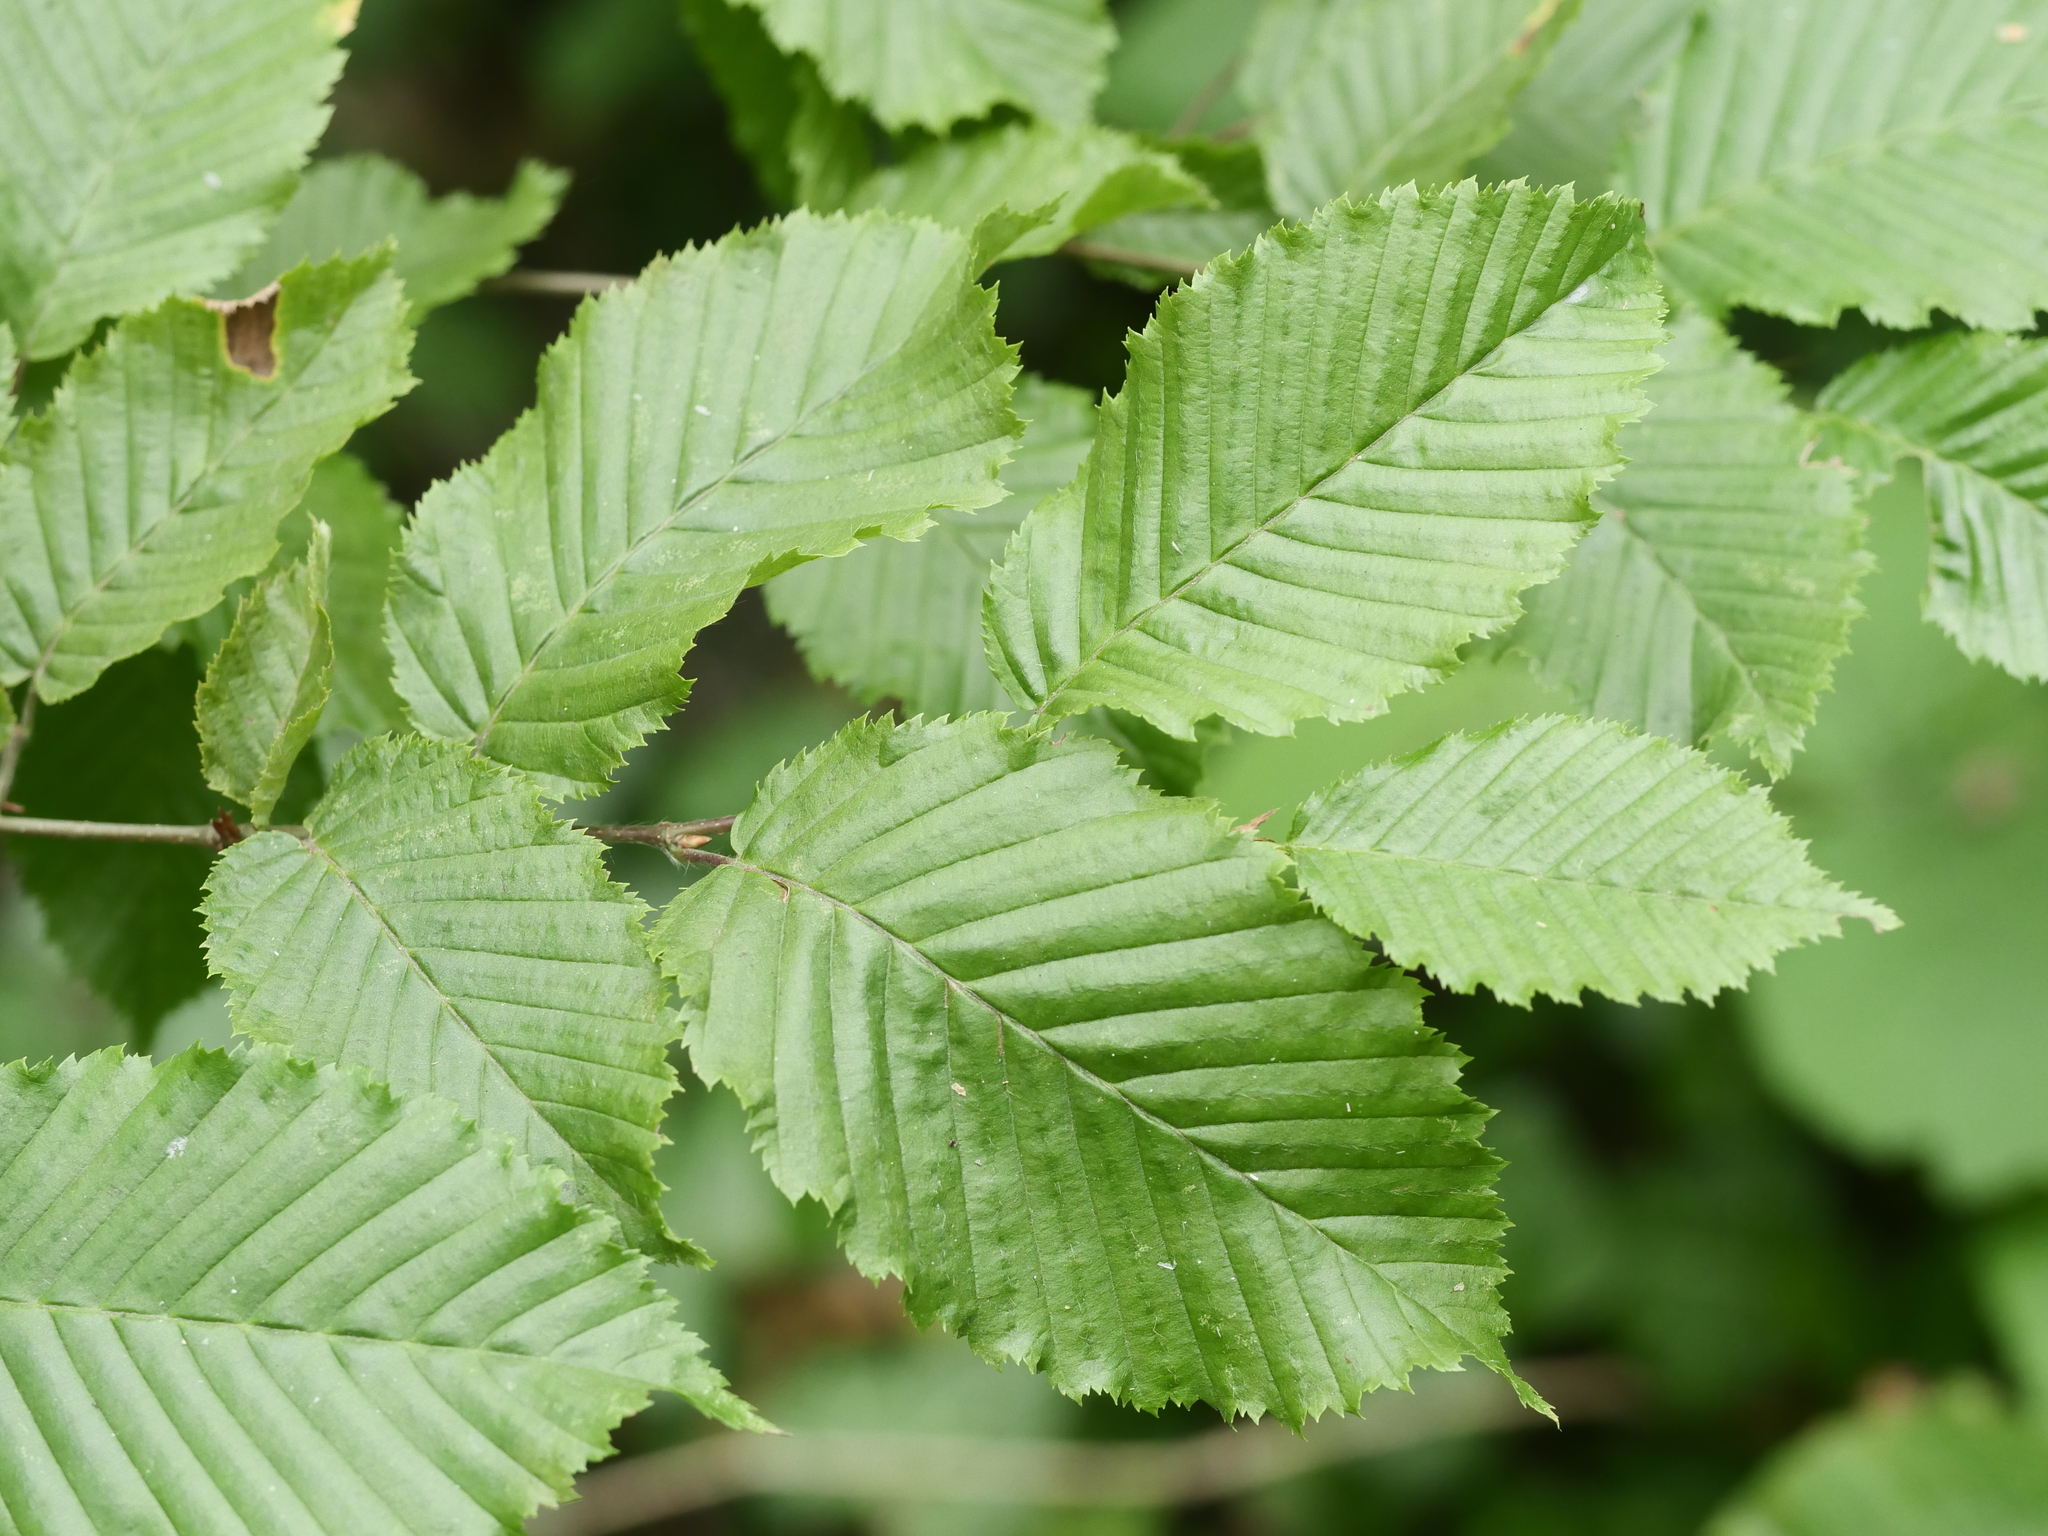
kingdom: Plantae
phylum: Tracheophyta
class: Magnoliopsida
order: Fagales
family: Betulaceae
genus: Carpinus
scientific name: Carpinus betulus
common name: Hornbeam
